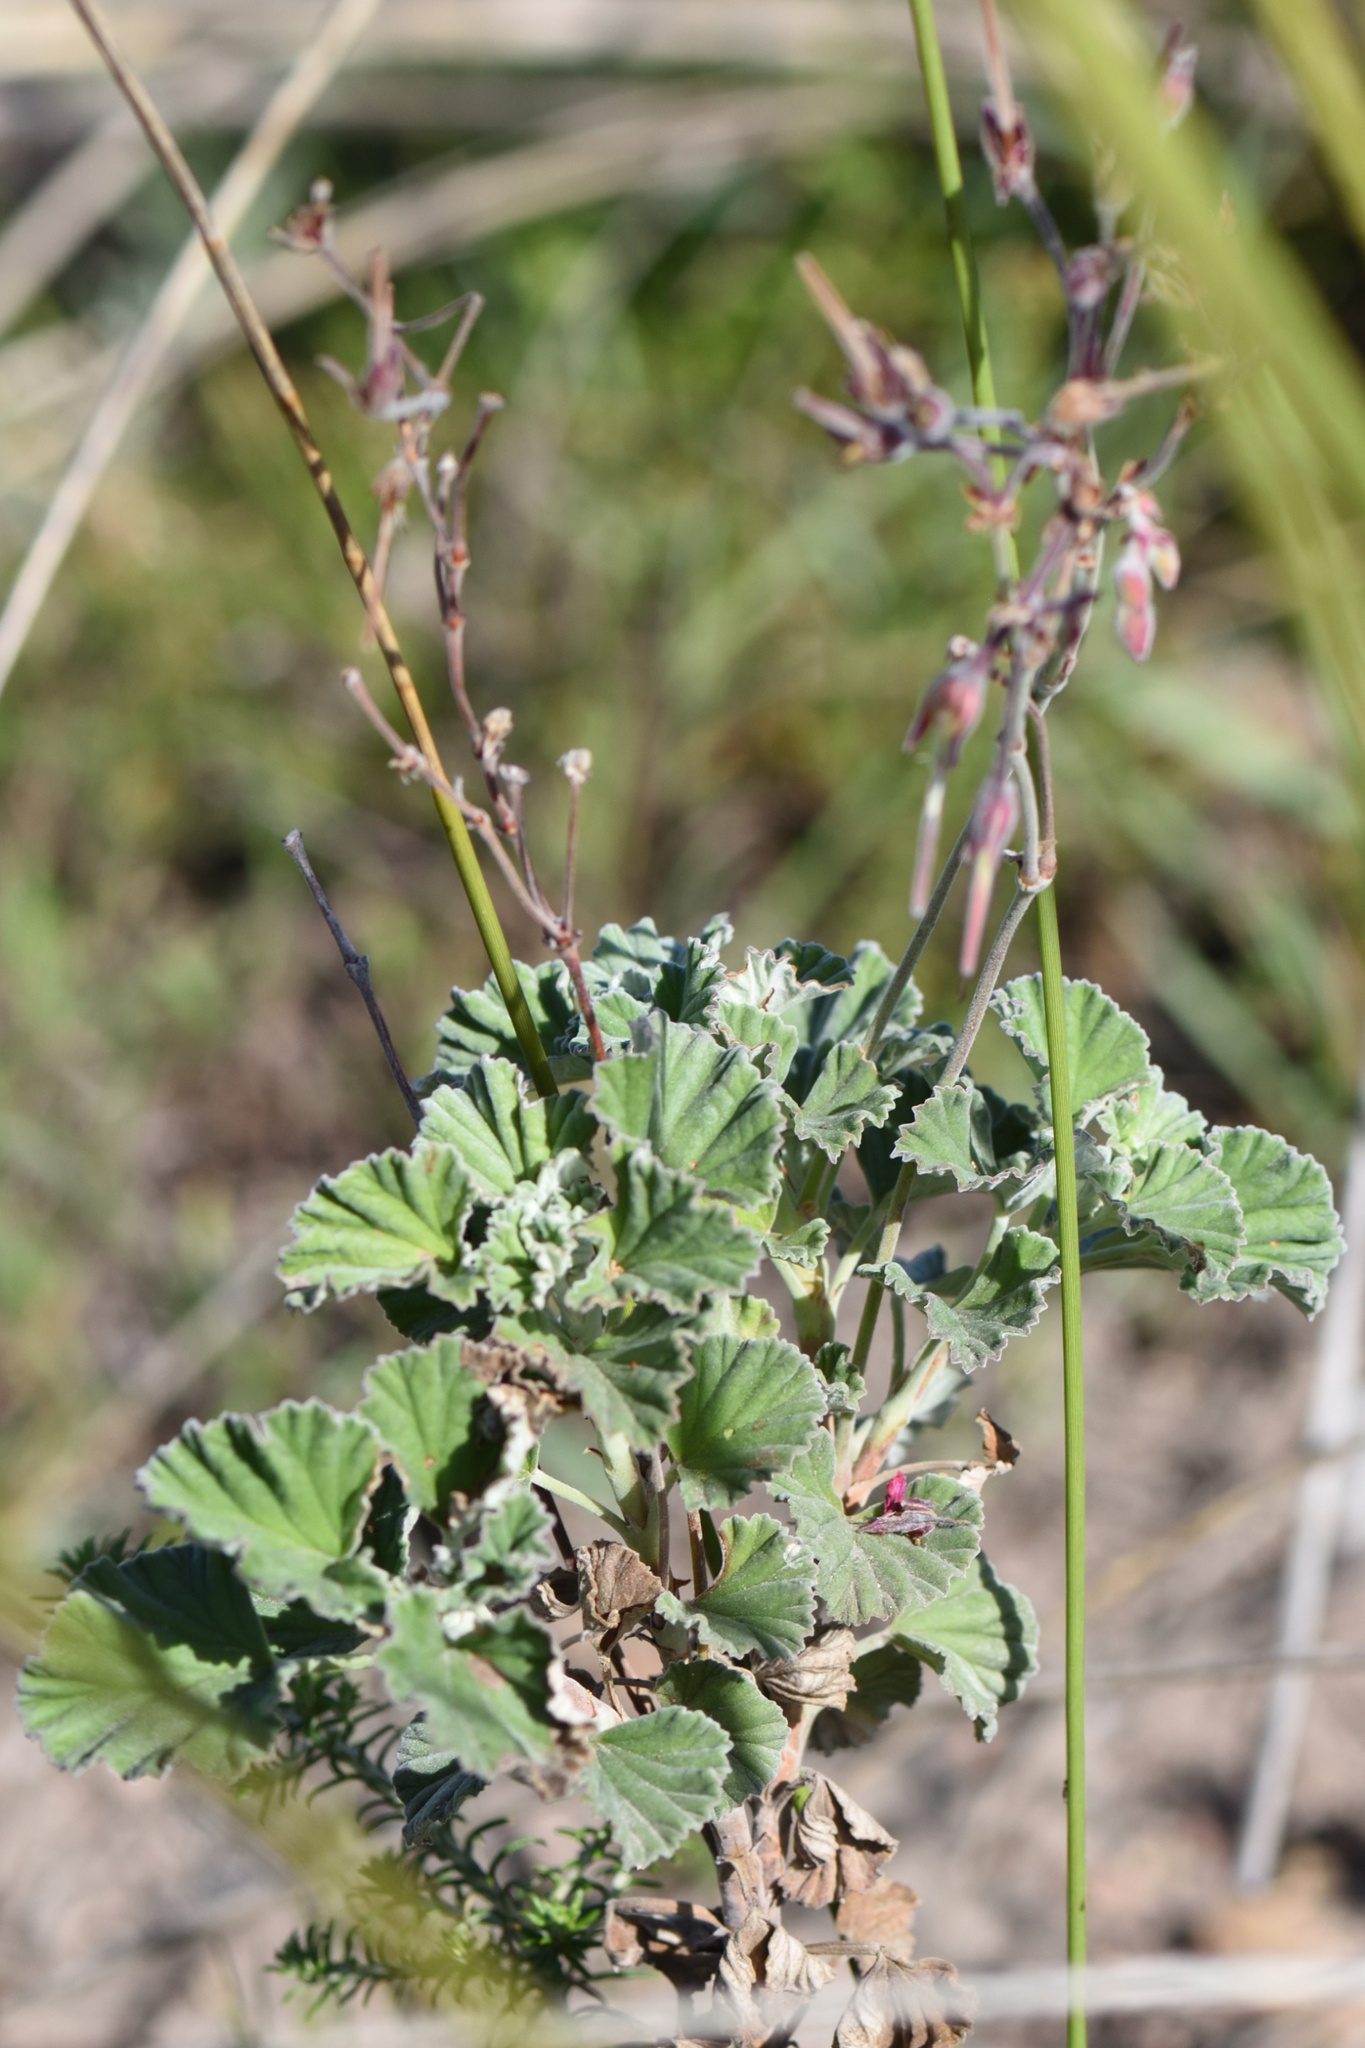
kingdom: Plantae
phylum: Tracheophyta
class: Magnoliopsida
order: Geraniales
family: Geraniaceae
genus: Pelargonium
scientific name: Pelargonium reniforme
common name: Kidney-leaf pelargonium
